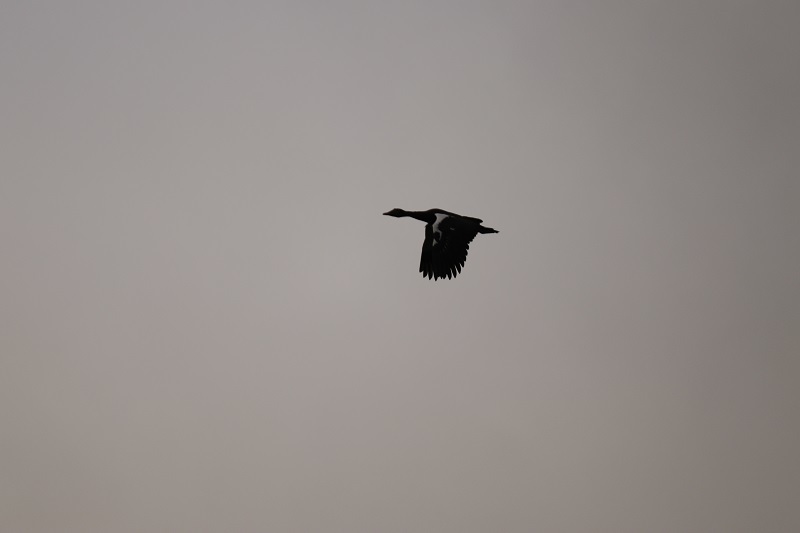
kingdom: Animalia
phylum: Chordata
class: Aves
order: Anseriformes
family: Anatidae
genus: Plectropterus
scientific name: Plectropterus gambensis
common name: Spur-winged goose
